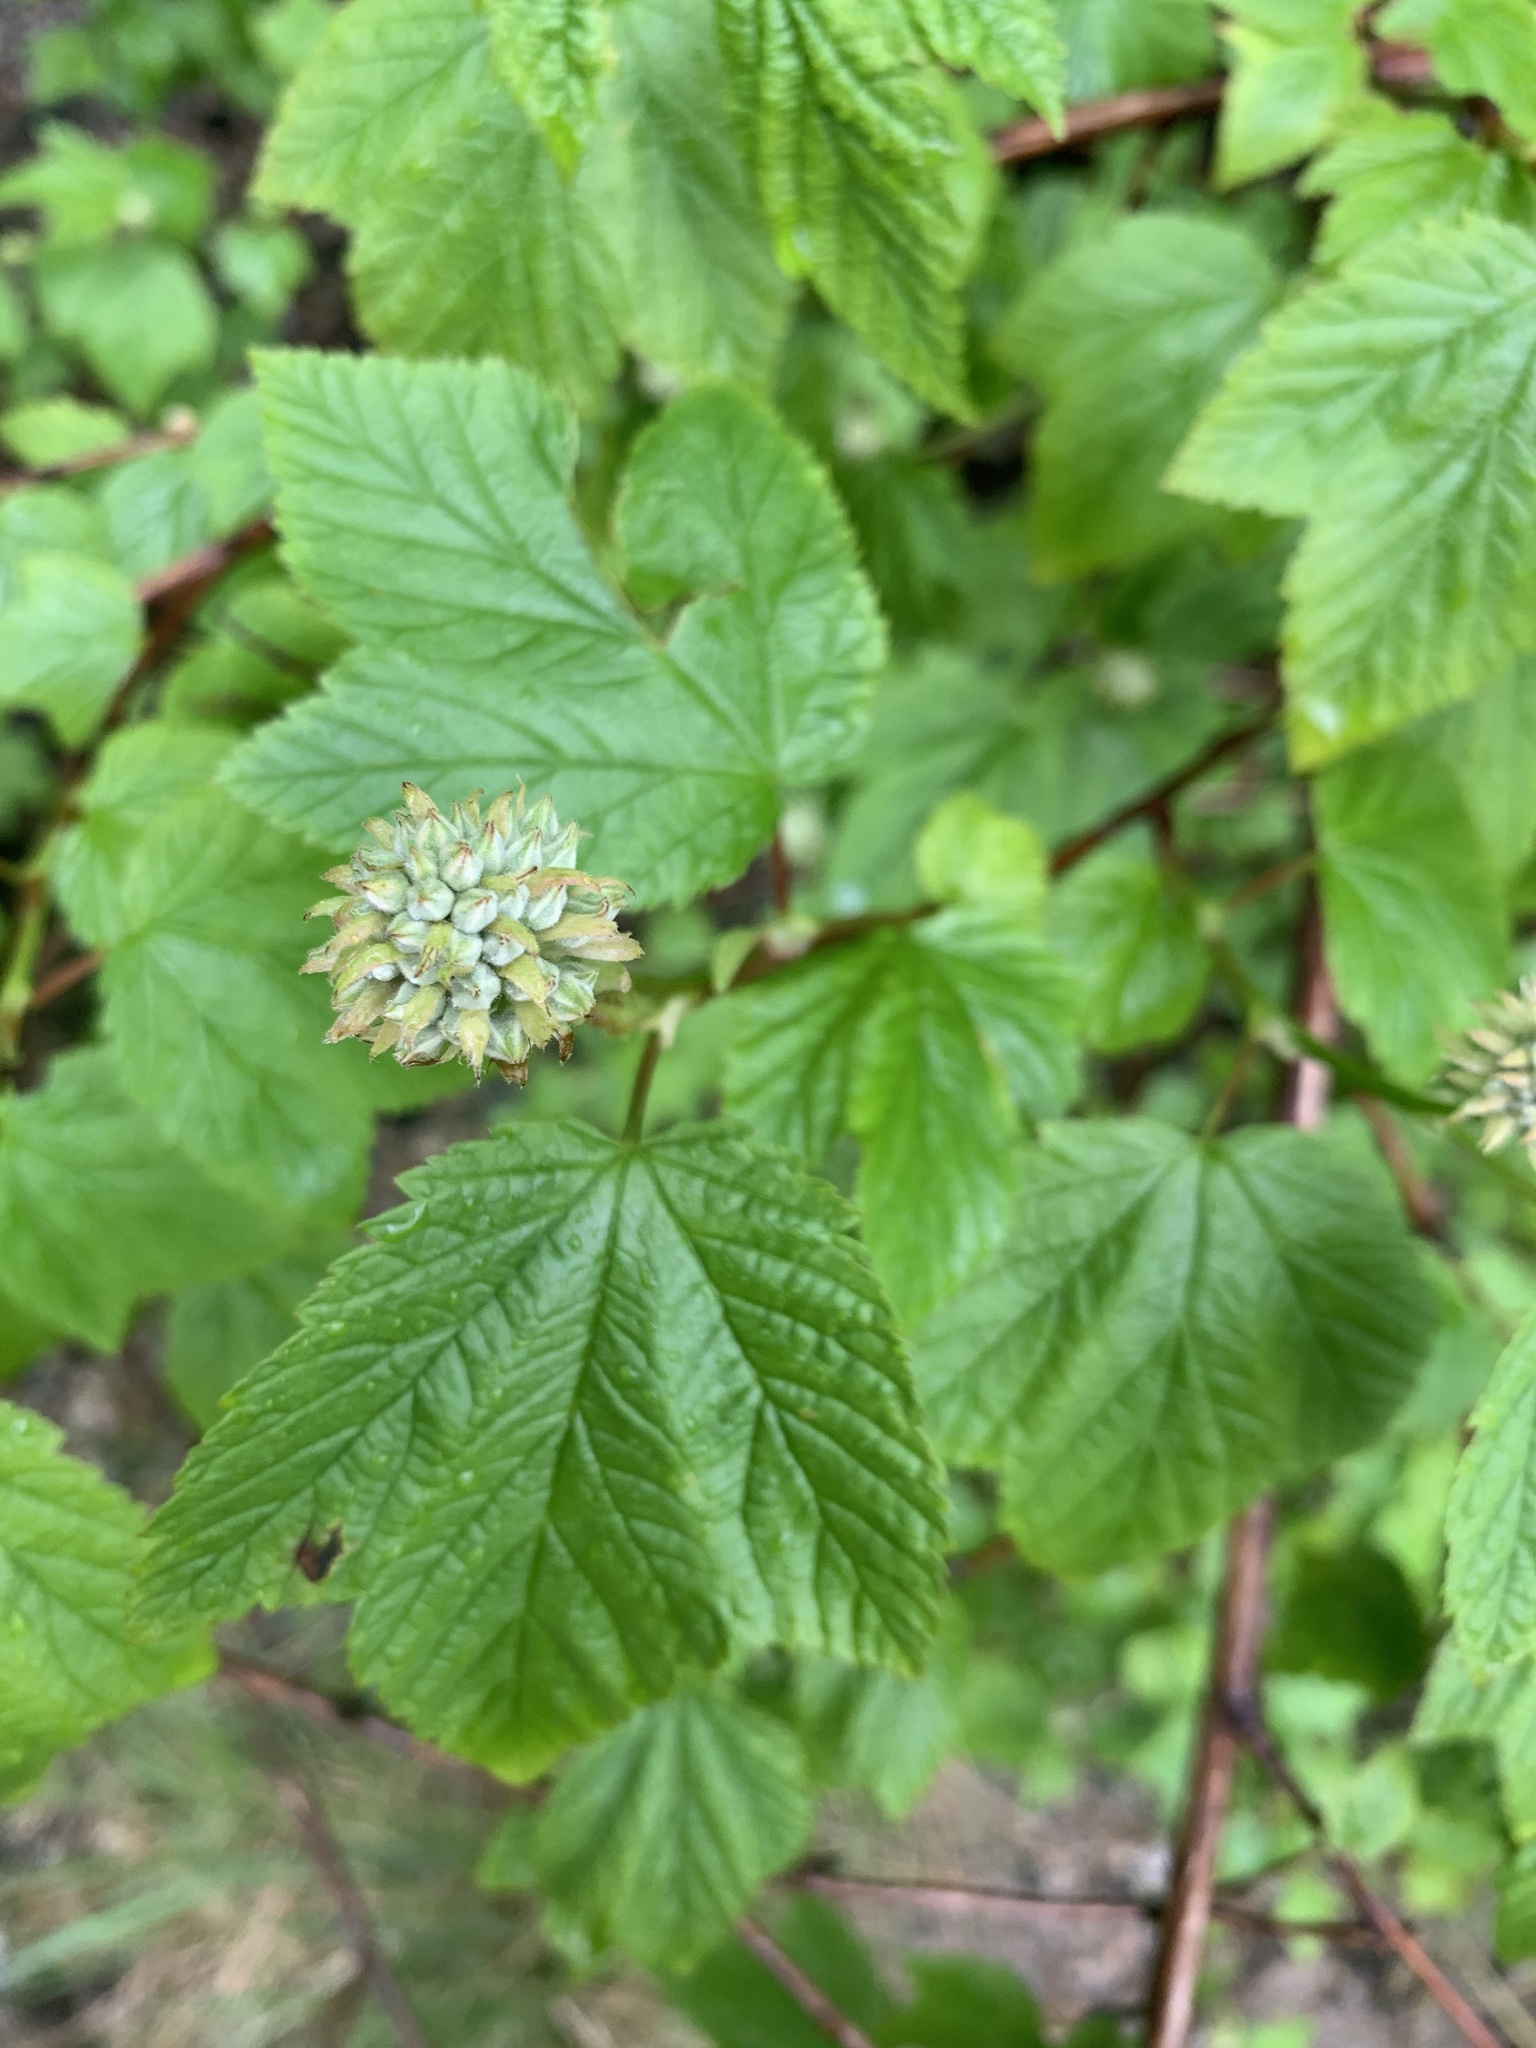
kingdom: Plantae
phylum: Tracheophyta
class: Magnoliopsida
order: Rosales
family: Rosaceae
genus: Physocarpus
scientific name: Physocarpus capitatus
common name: Pacific ninebark
